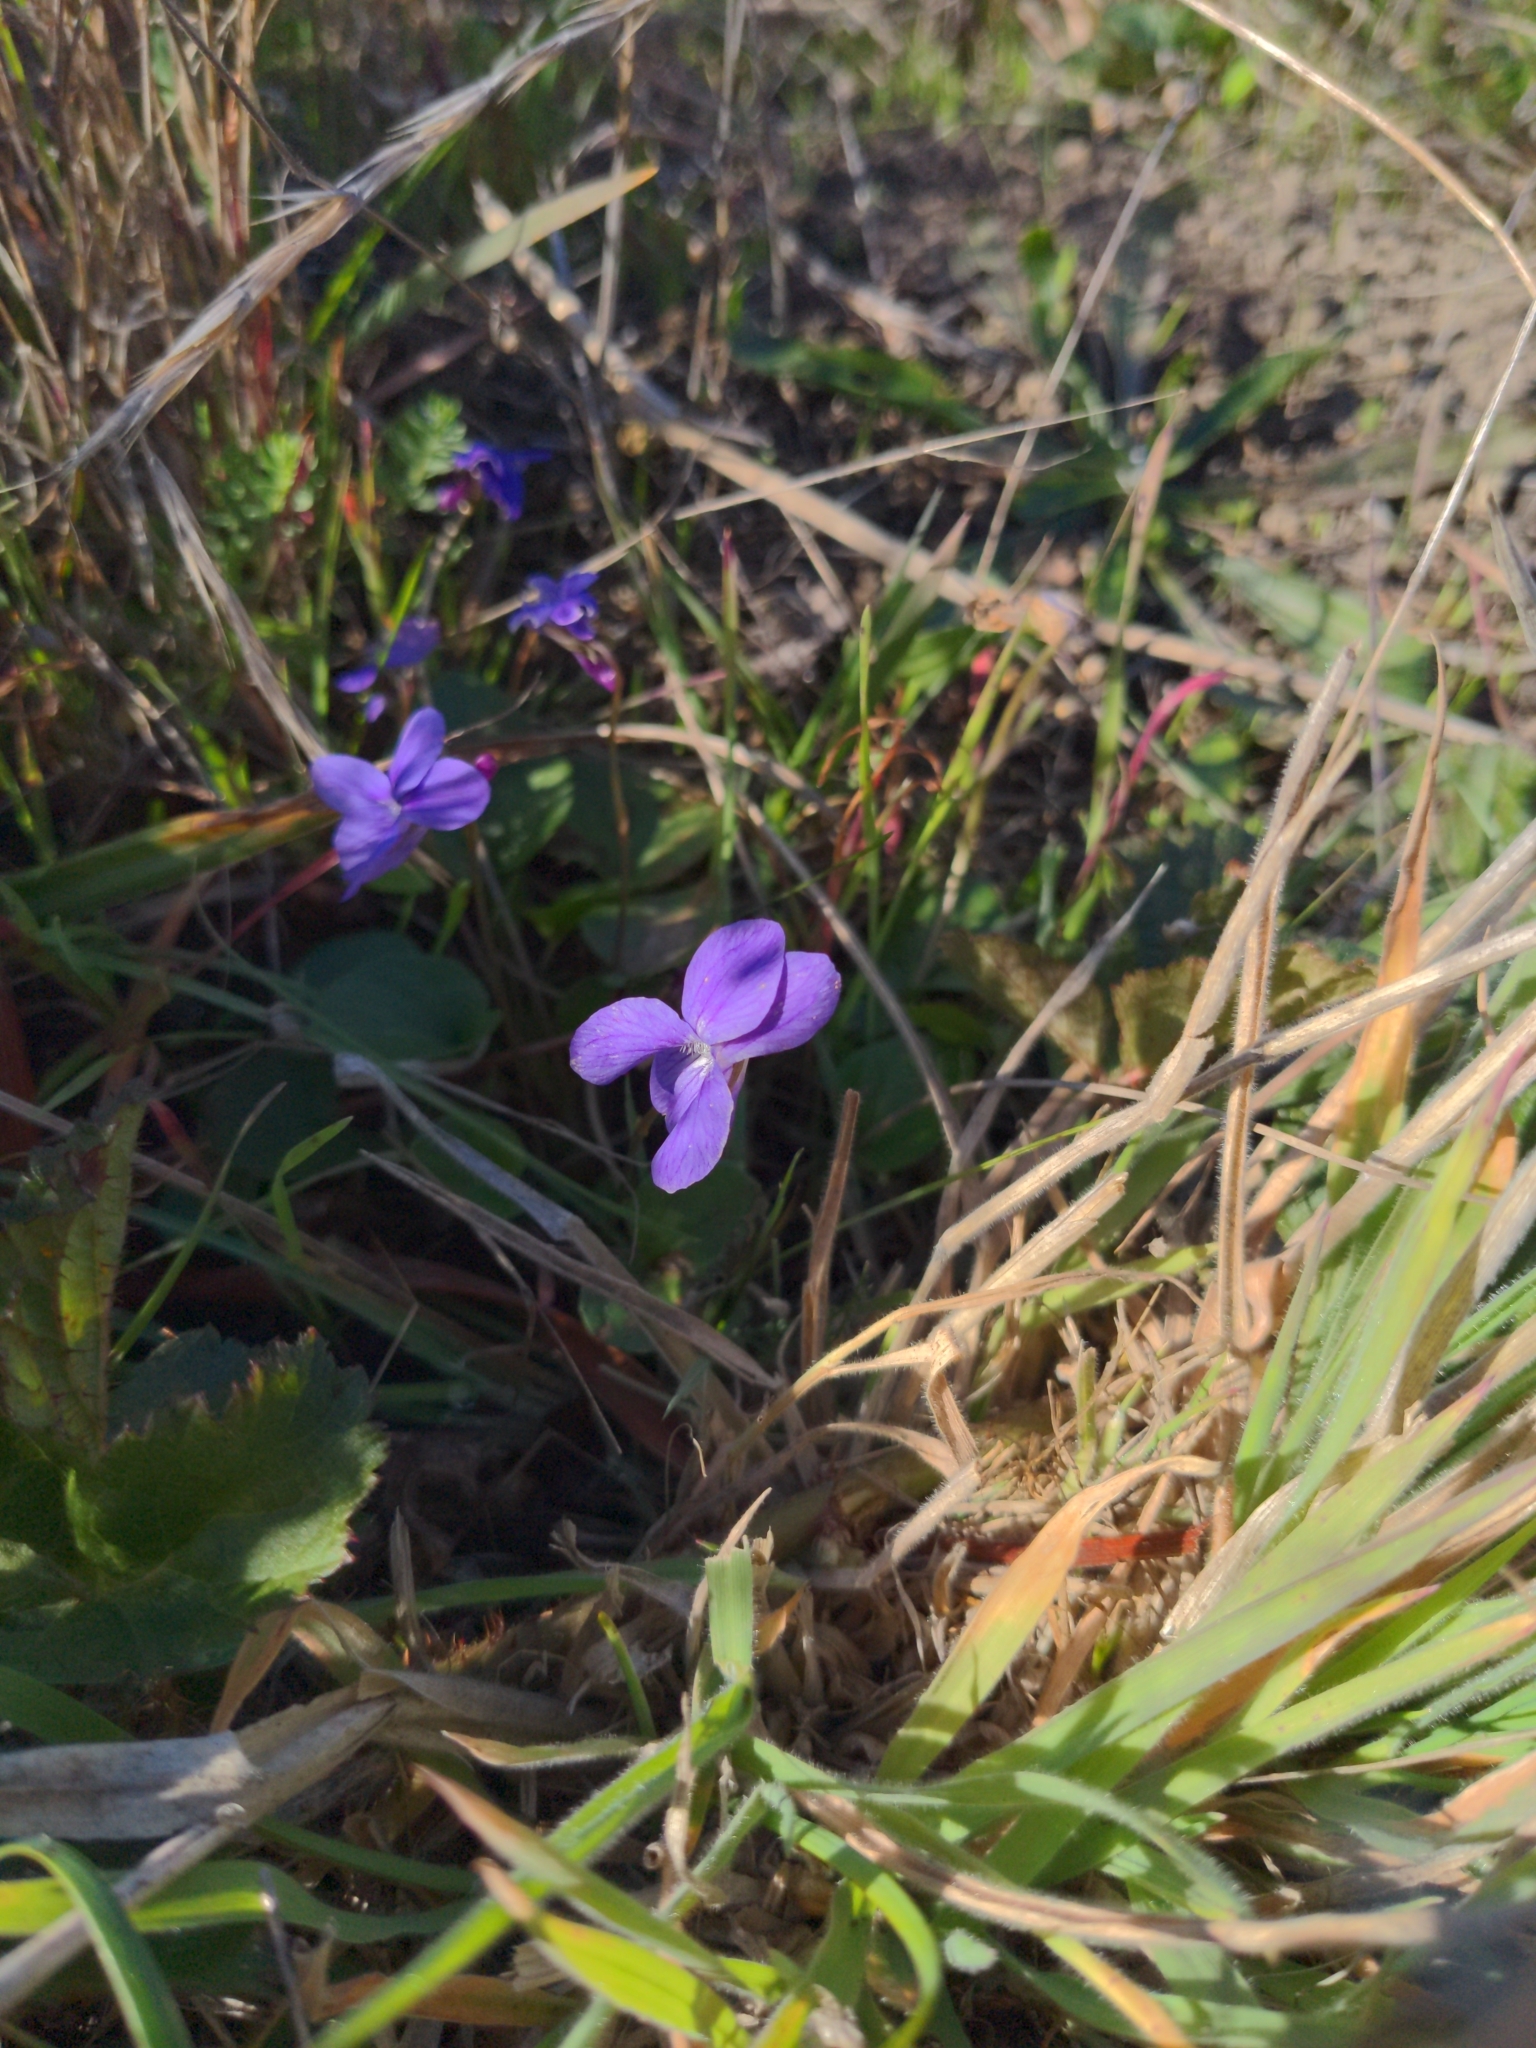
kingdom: Plantae
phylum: Tracheophyta
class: Magnoliopsida
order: Malpighiales
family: Violaceae
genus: Viola
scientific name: Viola adunca
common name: Sand violet
